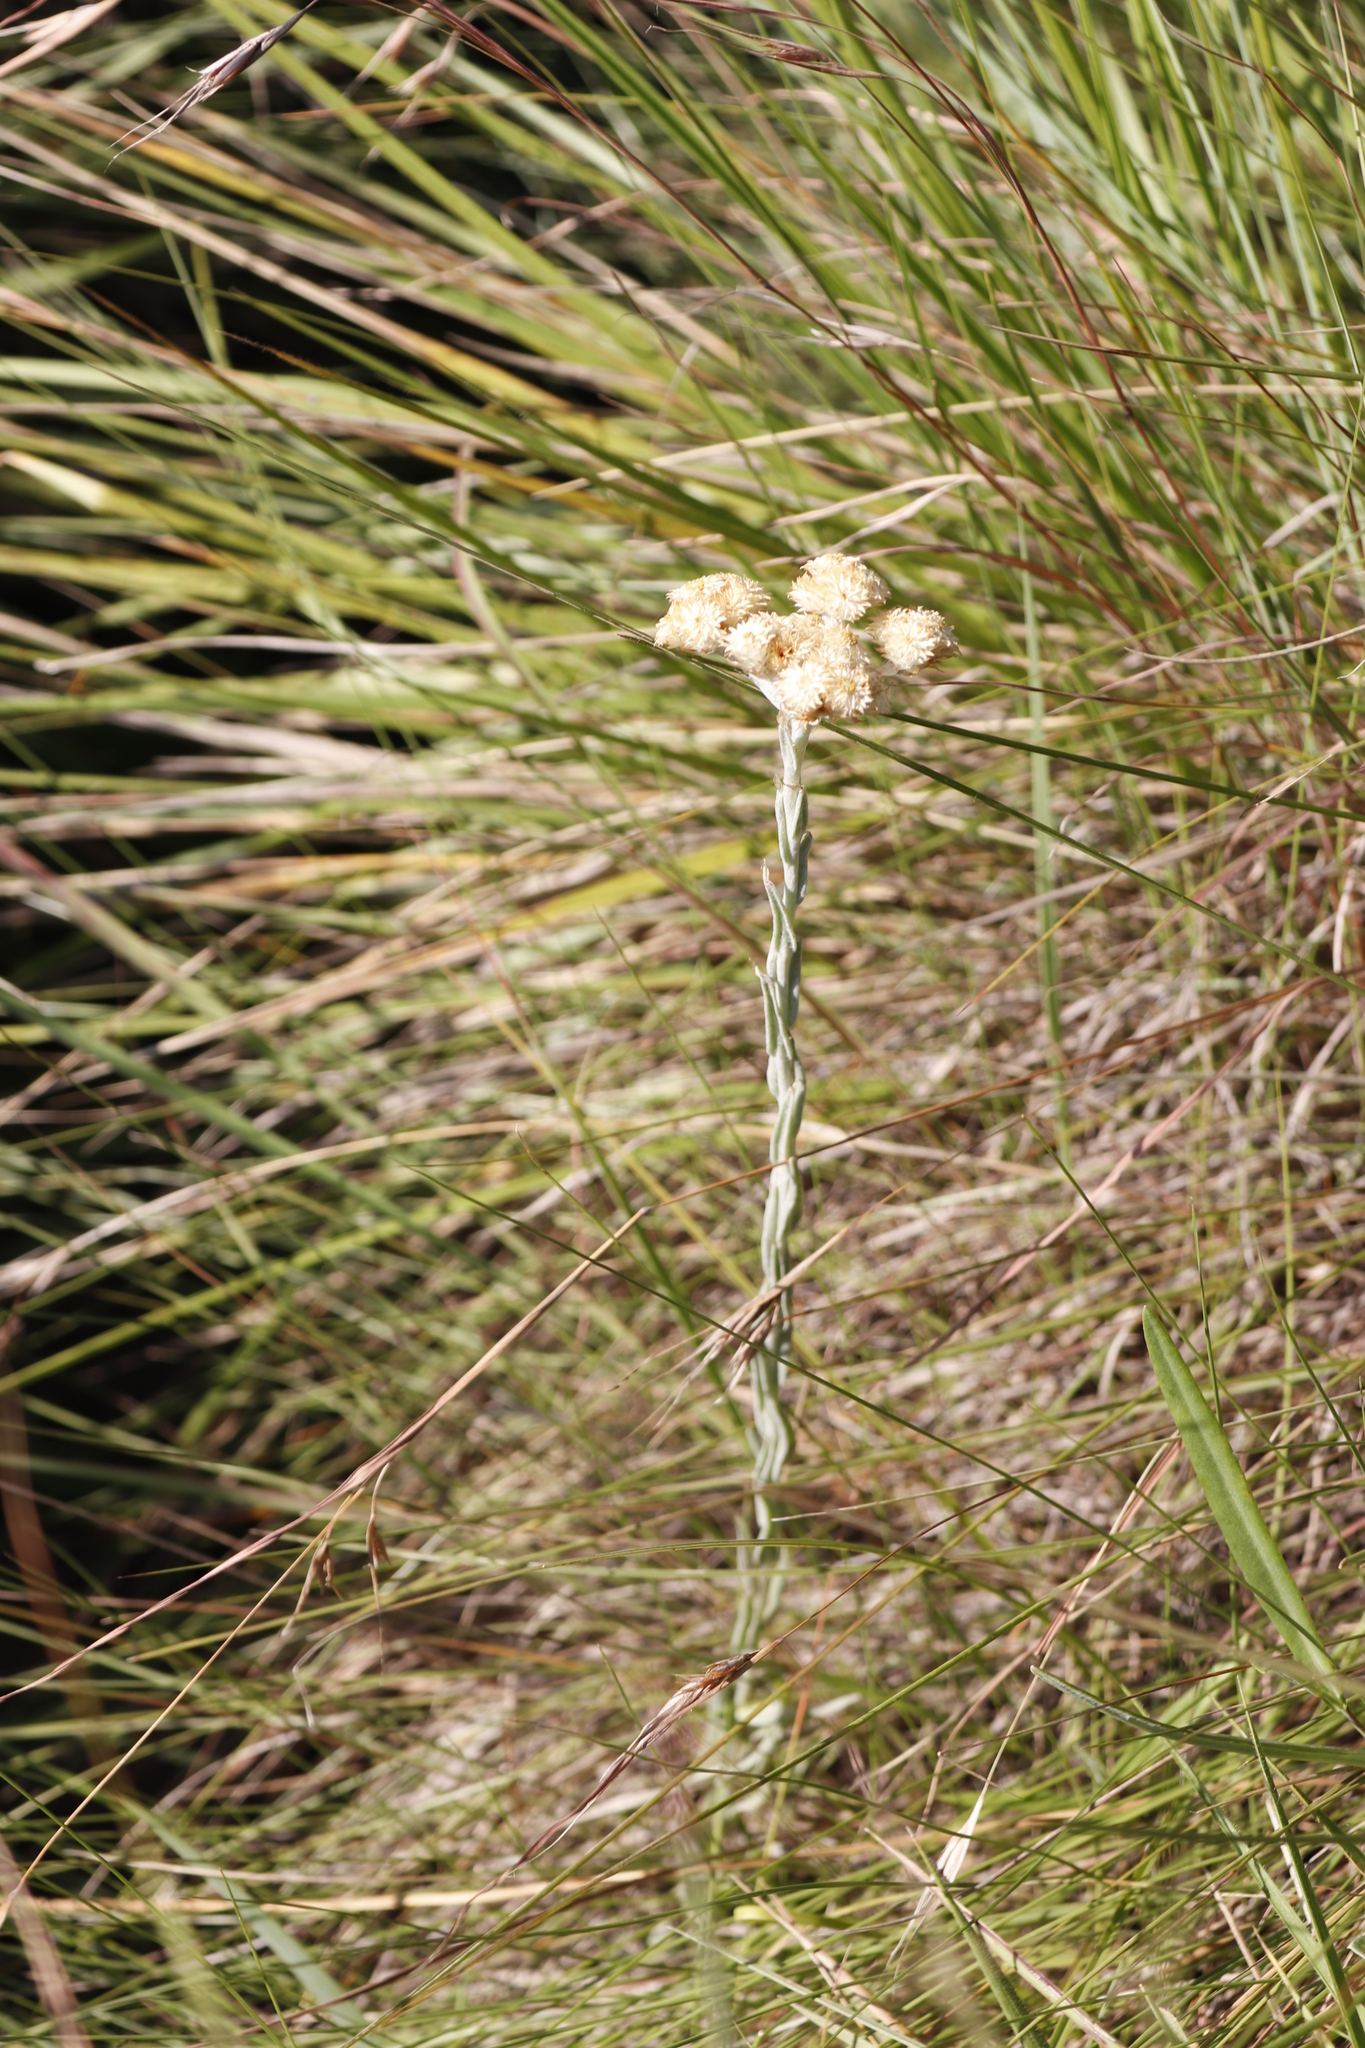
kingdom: Plantae
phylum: Tracheophyta
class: Magnoliopsida
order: Asterales
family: Asteraceae
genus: Helichrysum
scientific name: Helichrysum appendiculatum
